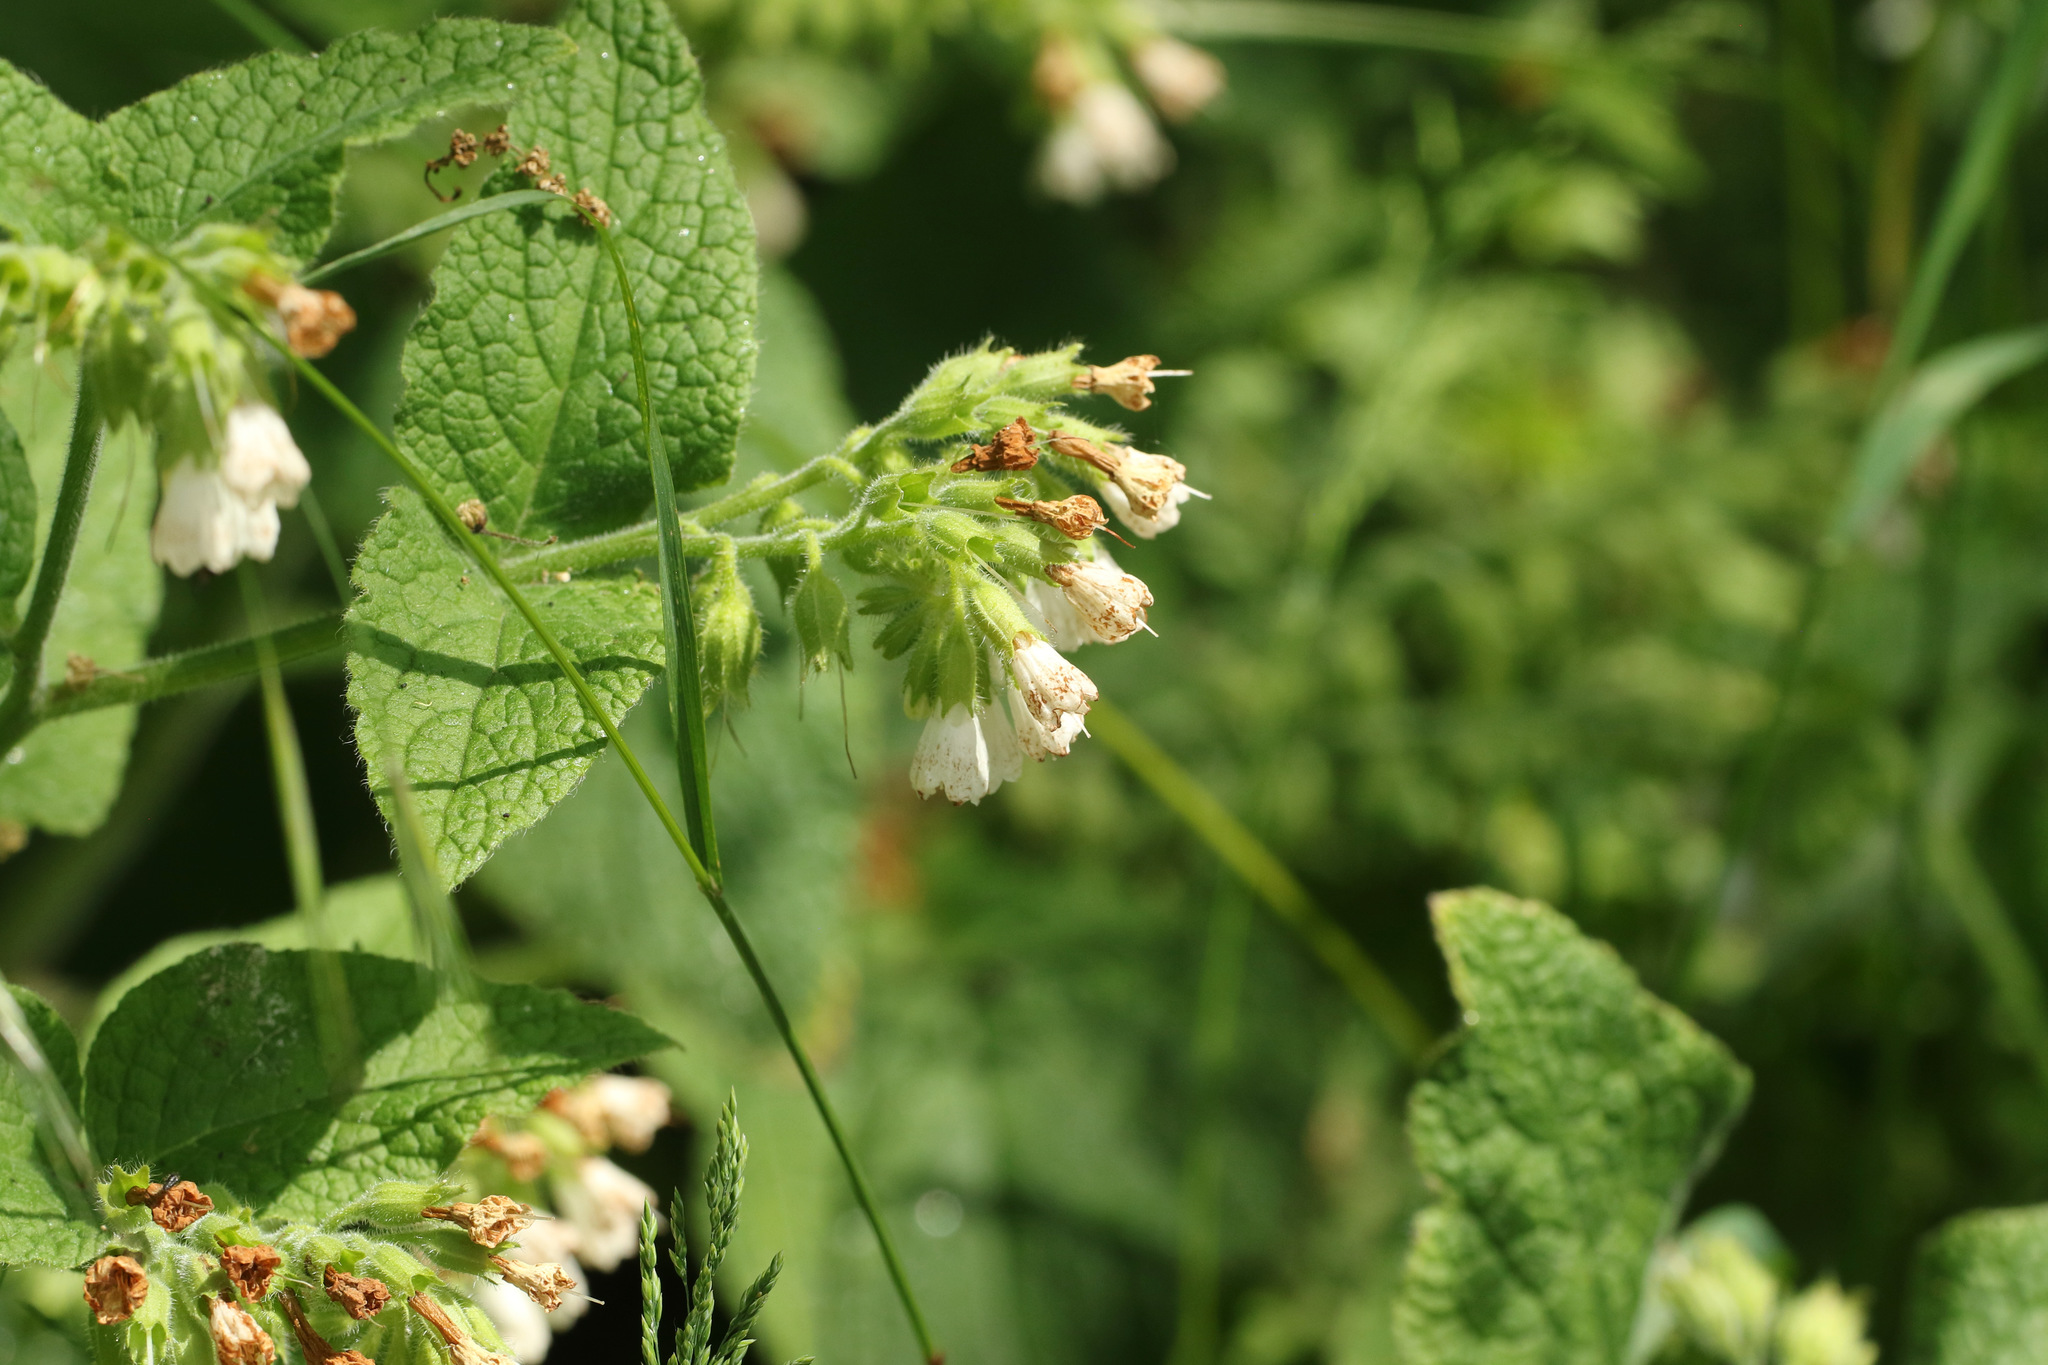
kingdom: Plantae
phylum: Tracheophyta
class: Magnoliopsida
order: Boraginales
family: Boraginaceae
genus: Symphytum
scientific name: Symphytum orientale
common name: White comfrey
